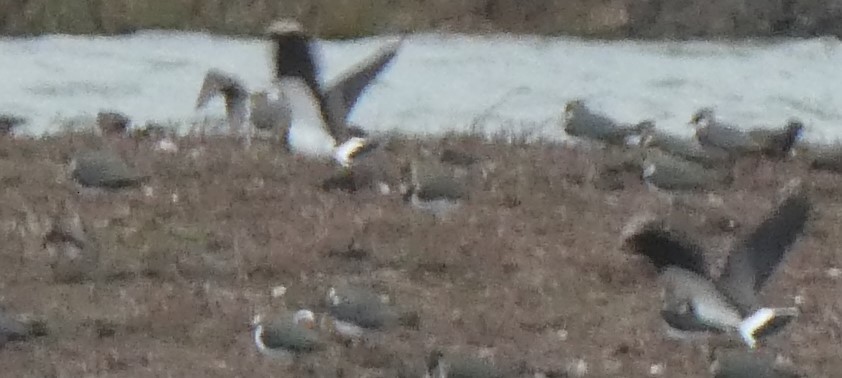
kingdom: Animalia
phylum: Chordata
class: Aves
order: Charadriiformes
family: Charadriidae
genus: Vanellus
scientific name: Vanellus vanellus
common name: Northern lapwing
